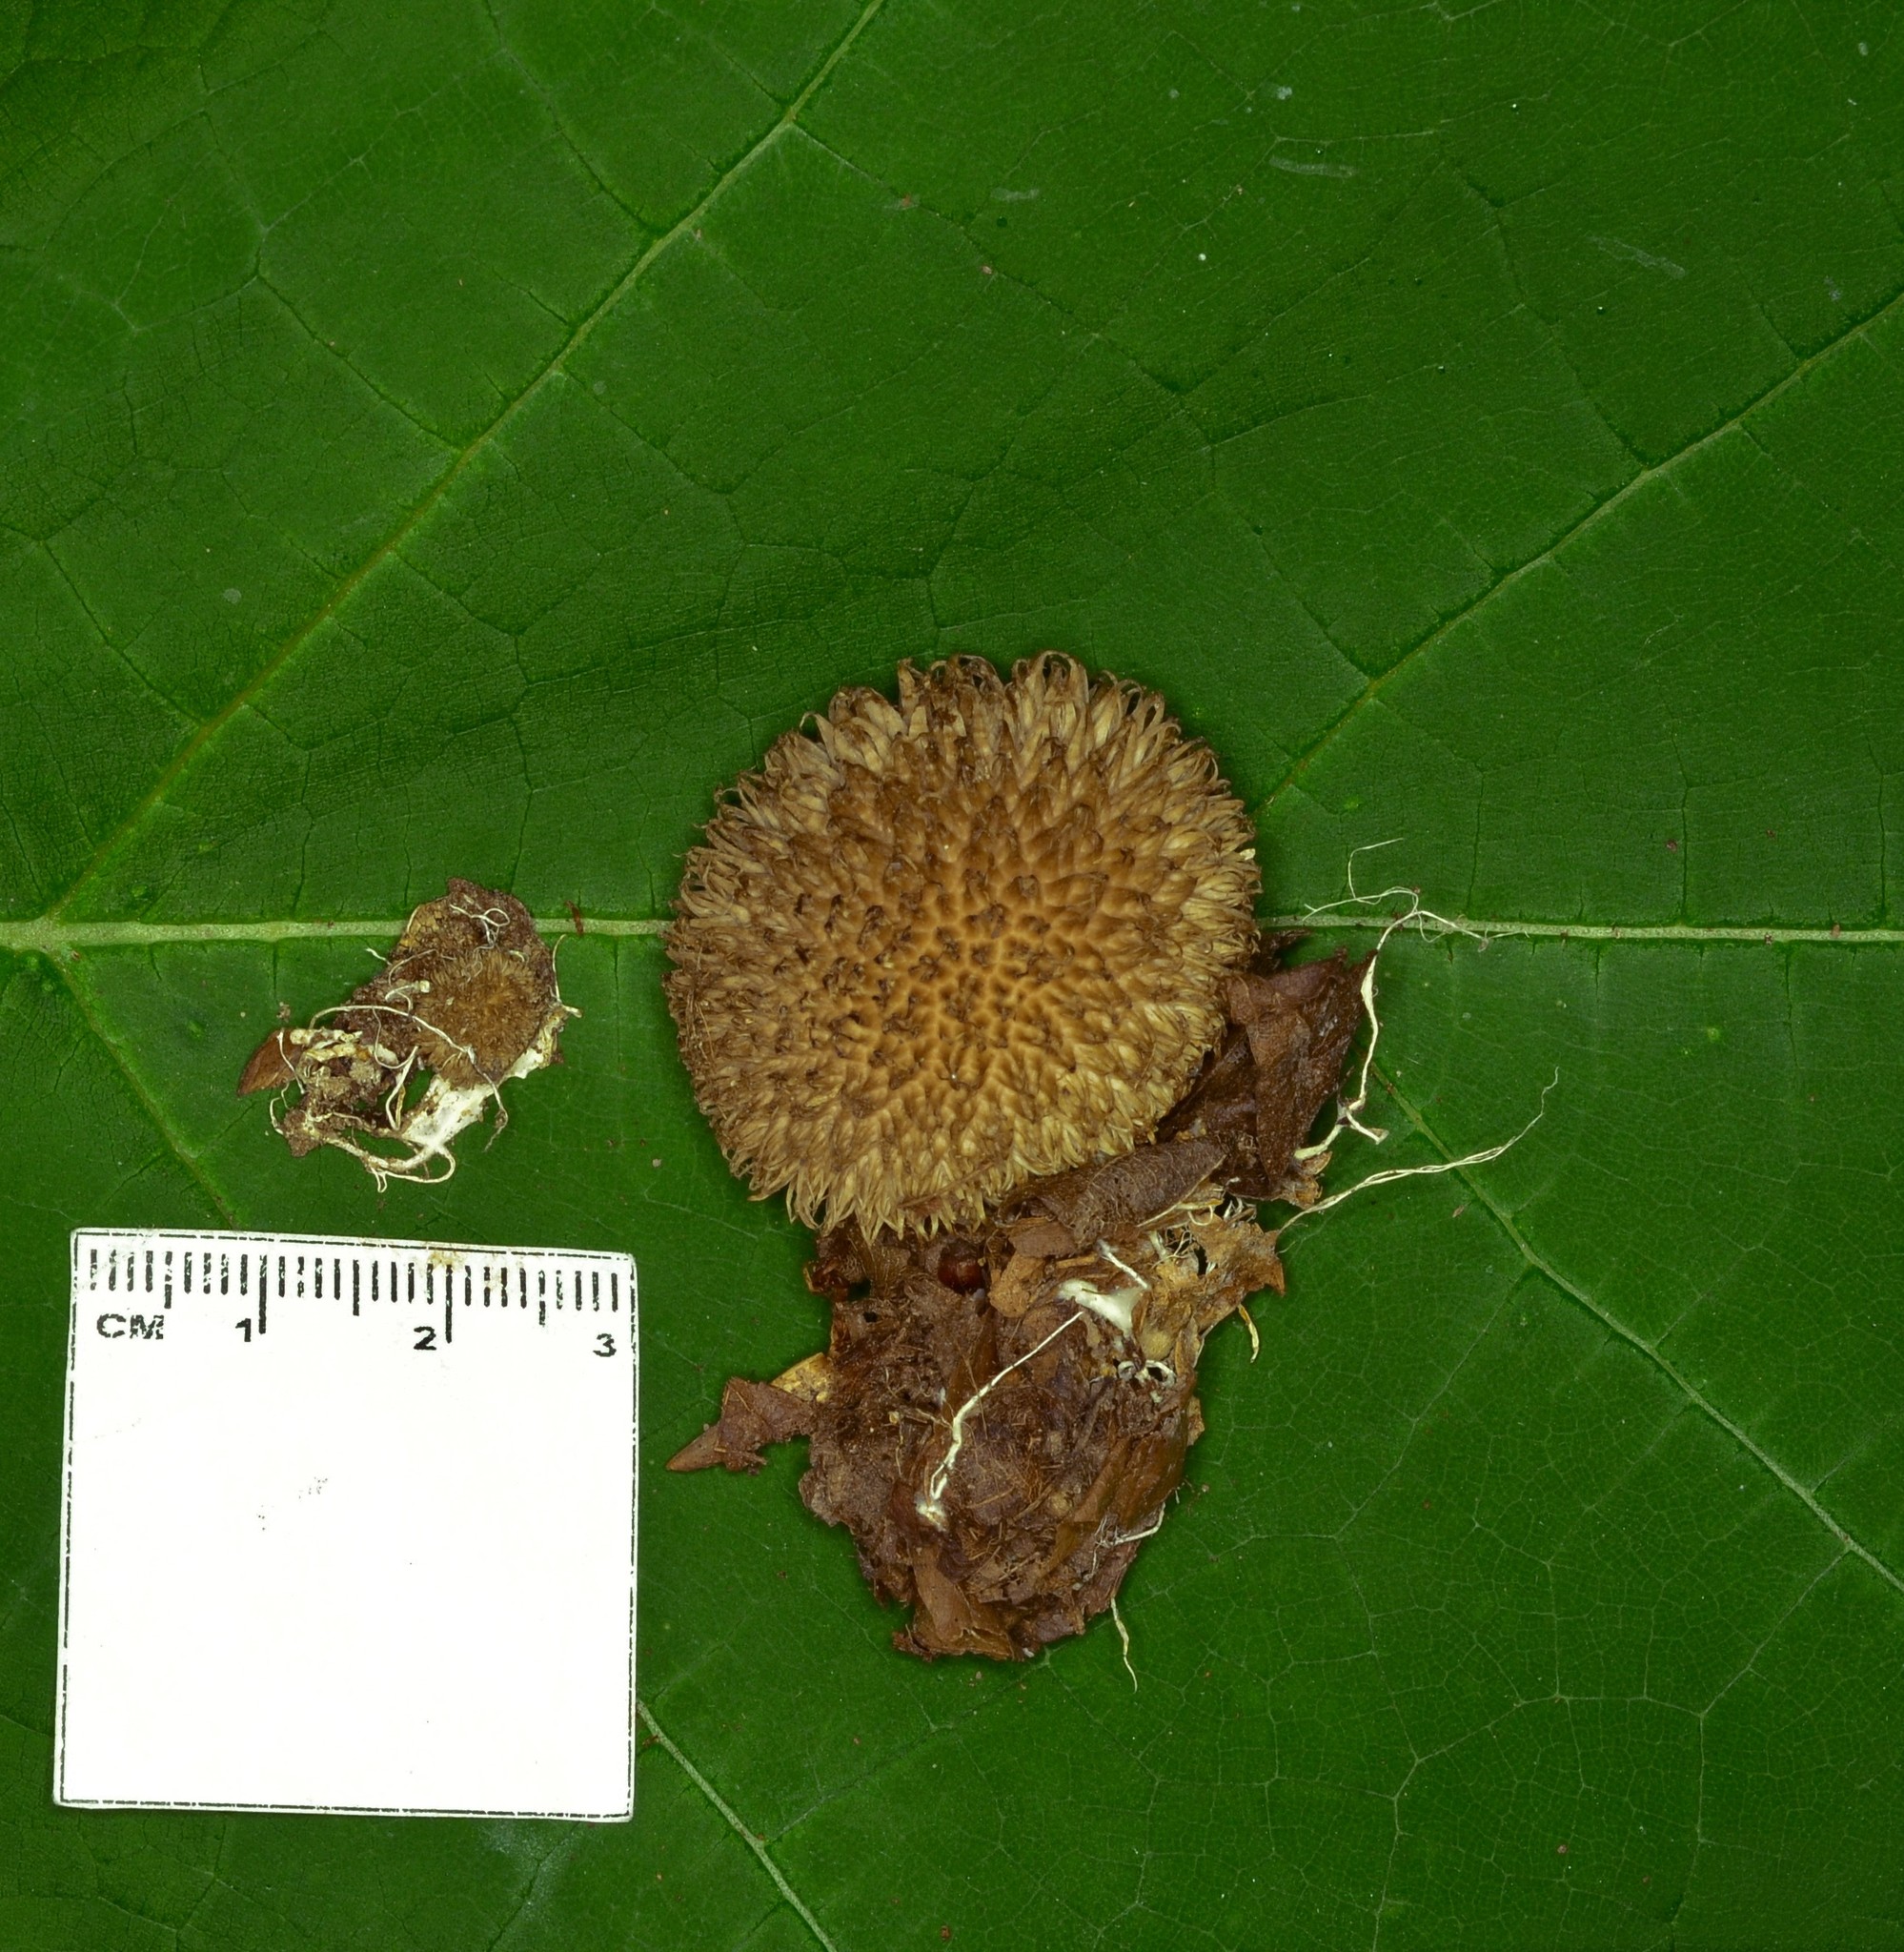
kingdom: Fungi
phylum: Basidiomycota
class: Agaricomycetes
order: Agaricales
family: Lycoperdaceae
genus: Lycoperdon
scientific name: Lycoperdon echinatum
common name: Hedgehog puffball
